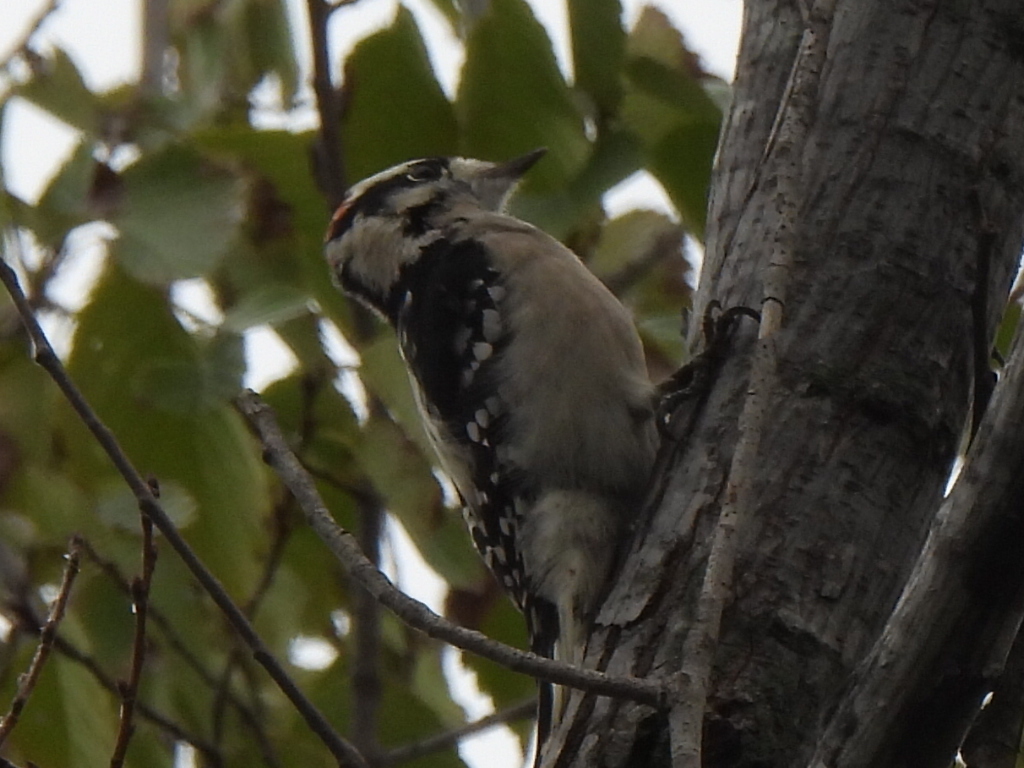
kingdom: Animalia
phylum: Chordata
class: Aves
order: Piciformes
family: Picidae
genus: Dryobates
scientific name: Dryobates pubescens
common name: Downy woodpecker
